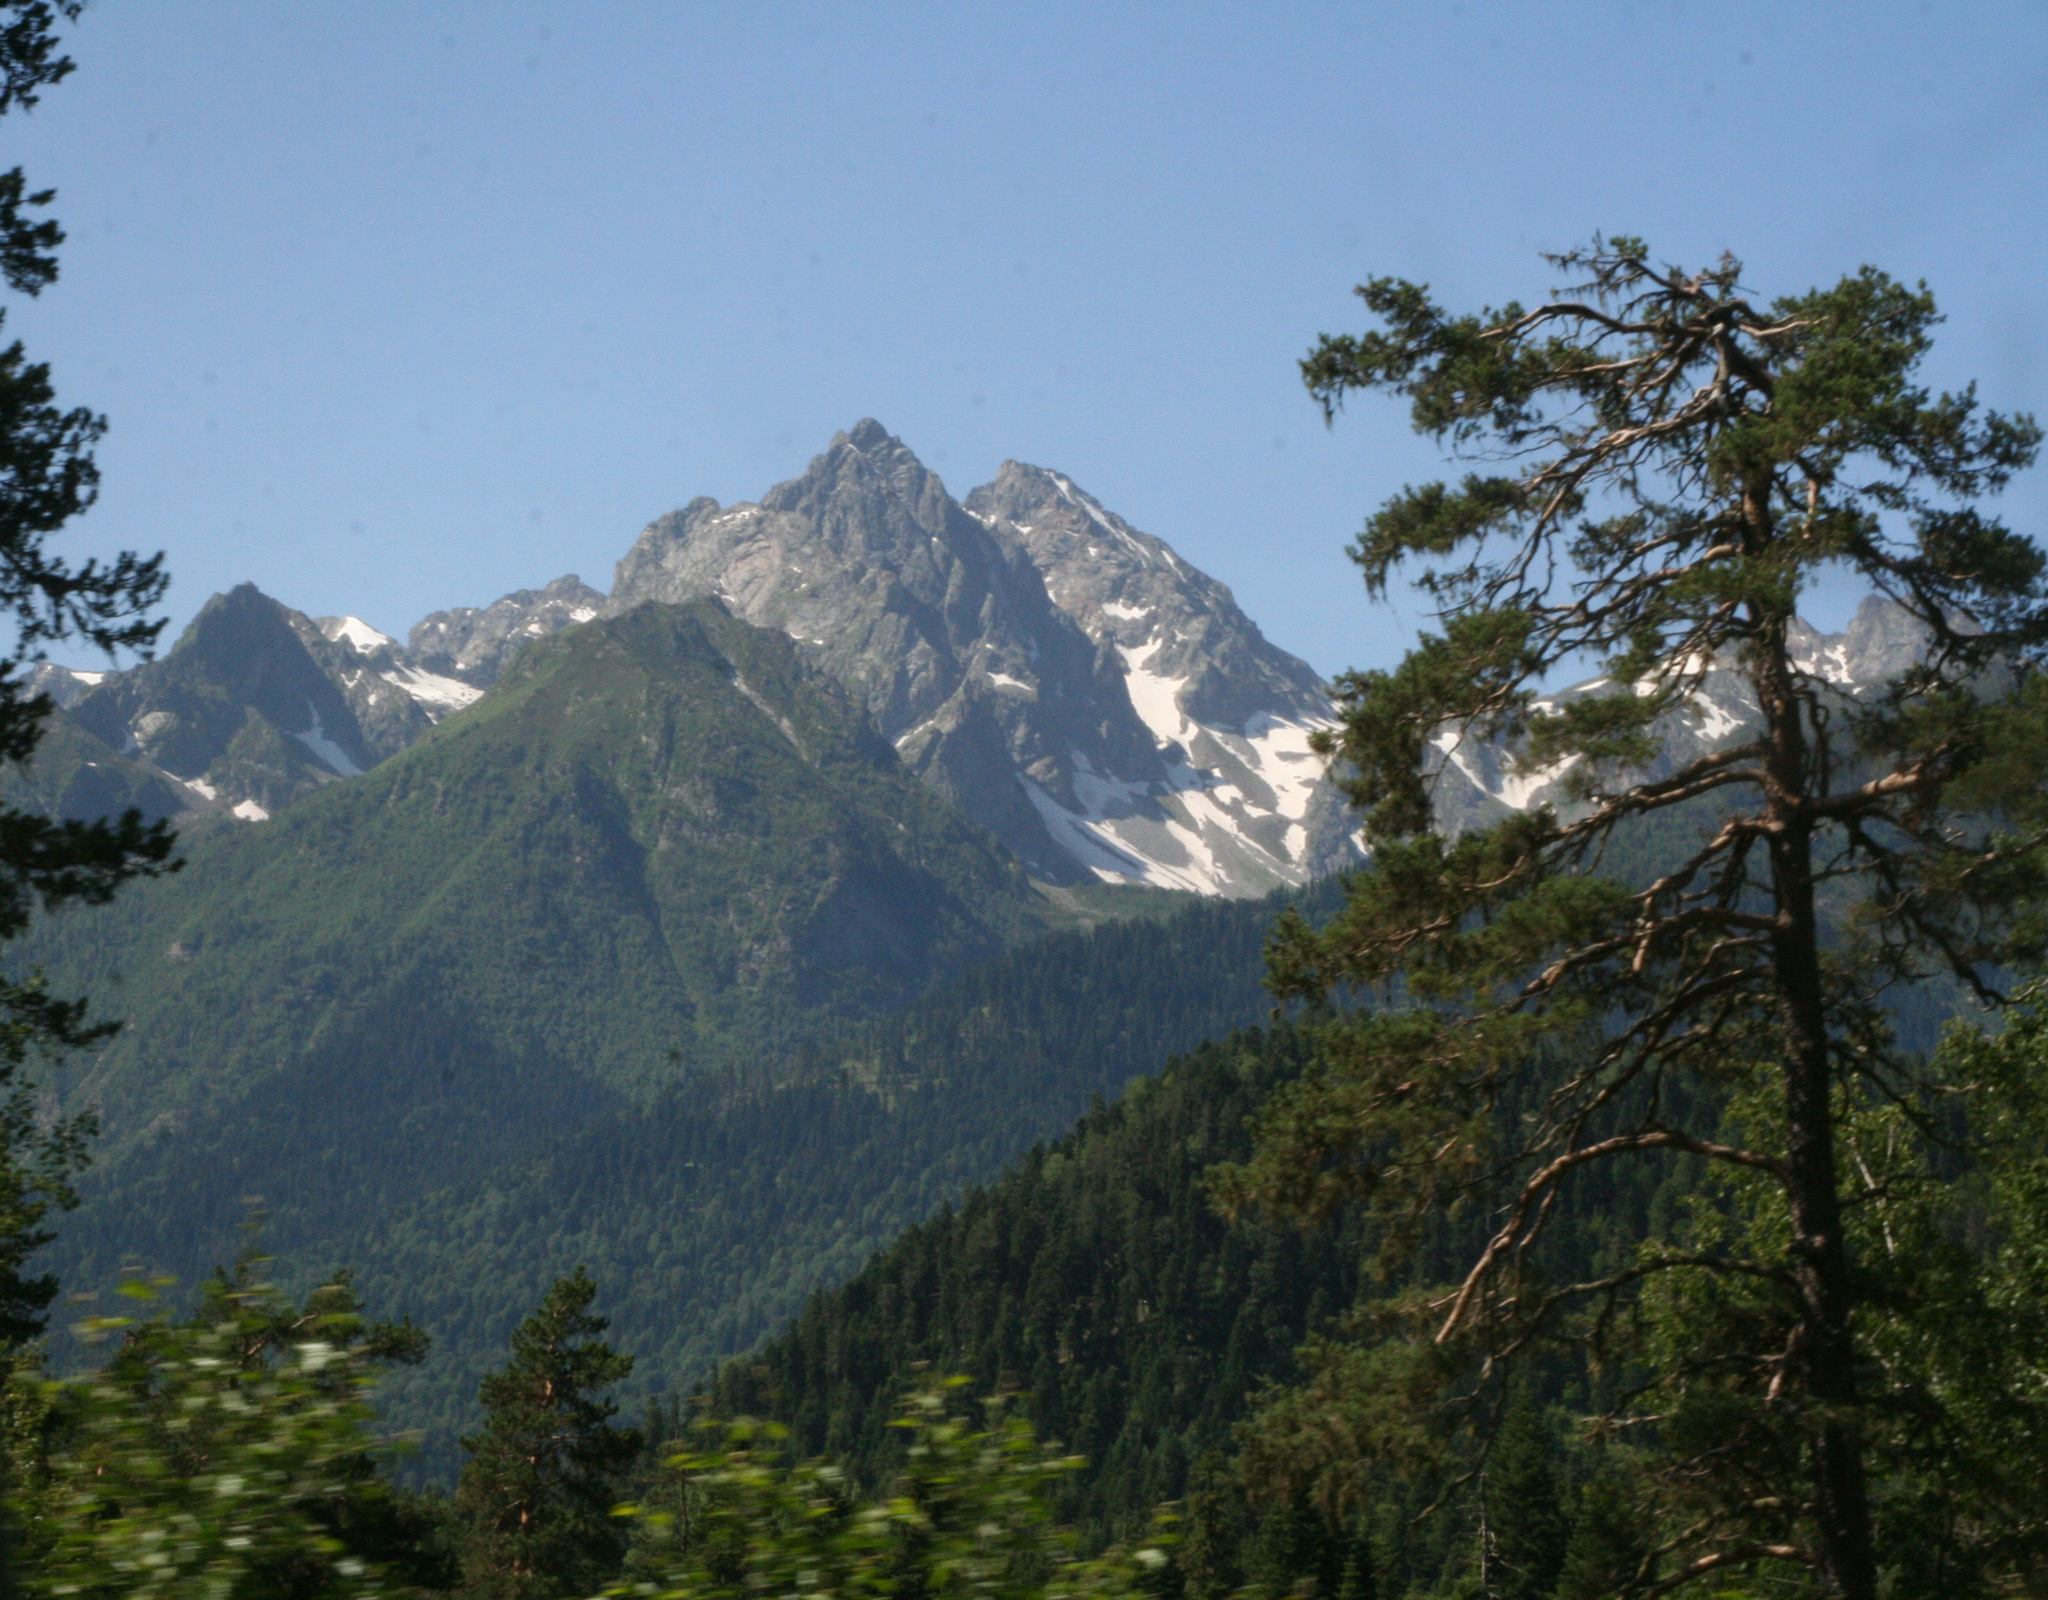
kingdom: Plantae
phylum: Tracheophyta
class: Pinopsida
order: Pinales
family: Pinaceae
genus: Pinus
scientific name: Pinus sylvestris
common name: Scots pine
